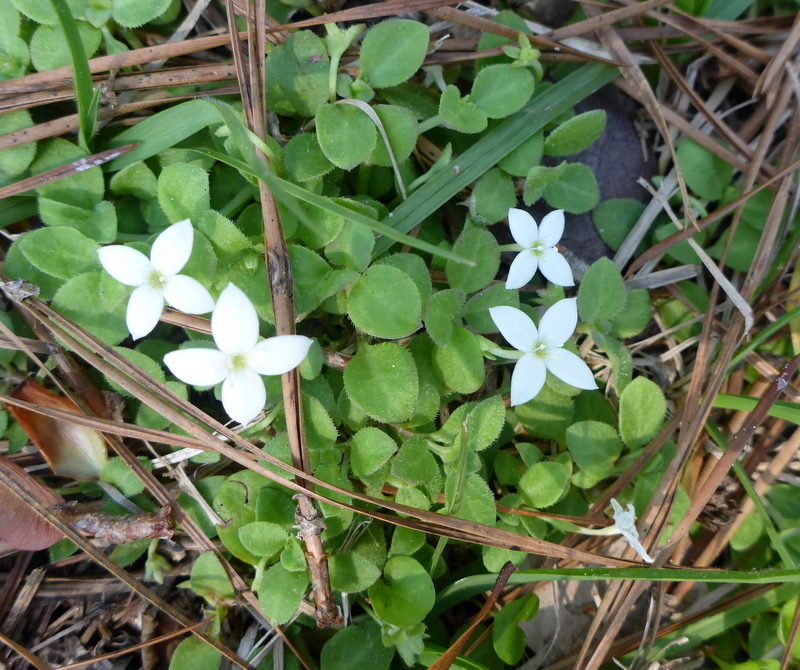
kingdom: Plantae
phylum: Tracheophyta
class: Magnoliopsida
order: Gentianales
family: Rubiaceae
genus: Houstonia
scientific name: Houstonia procumbens
